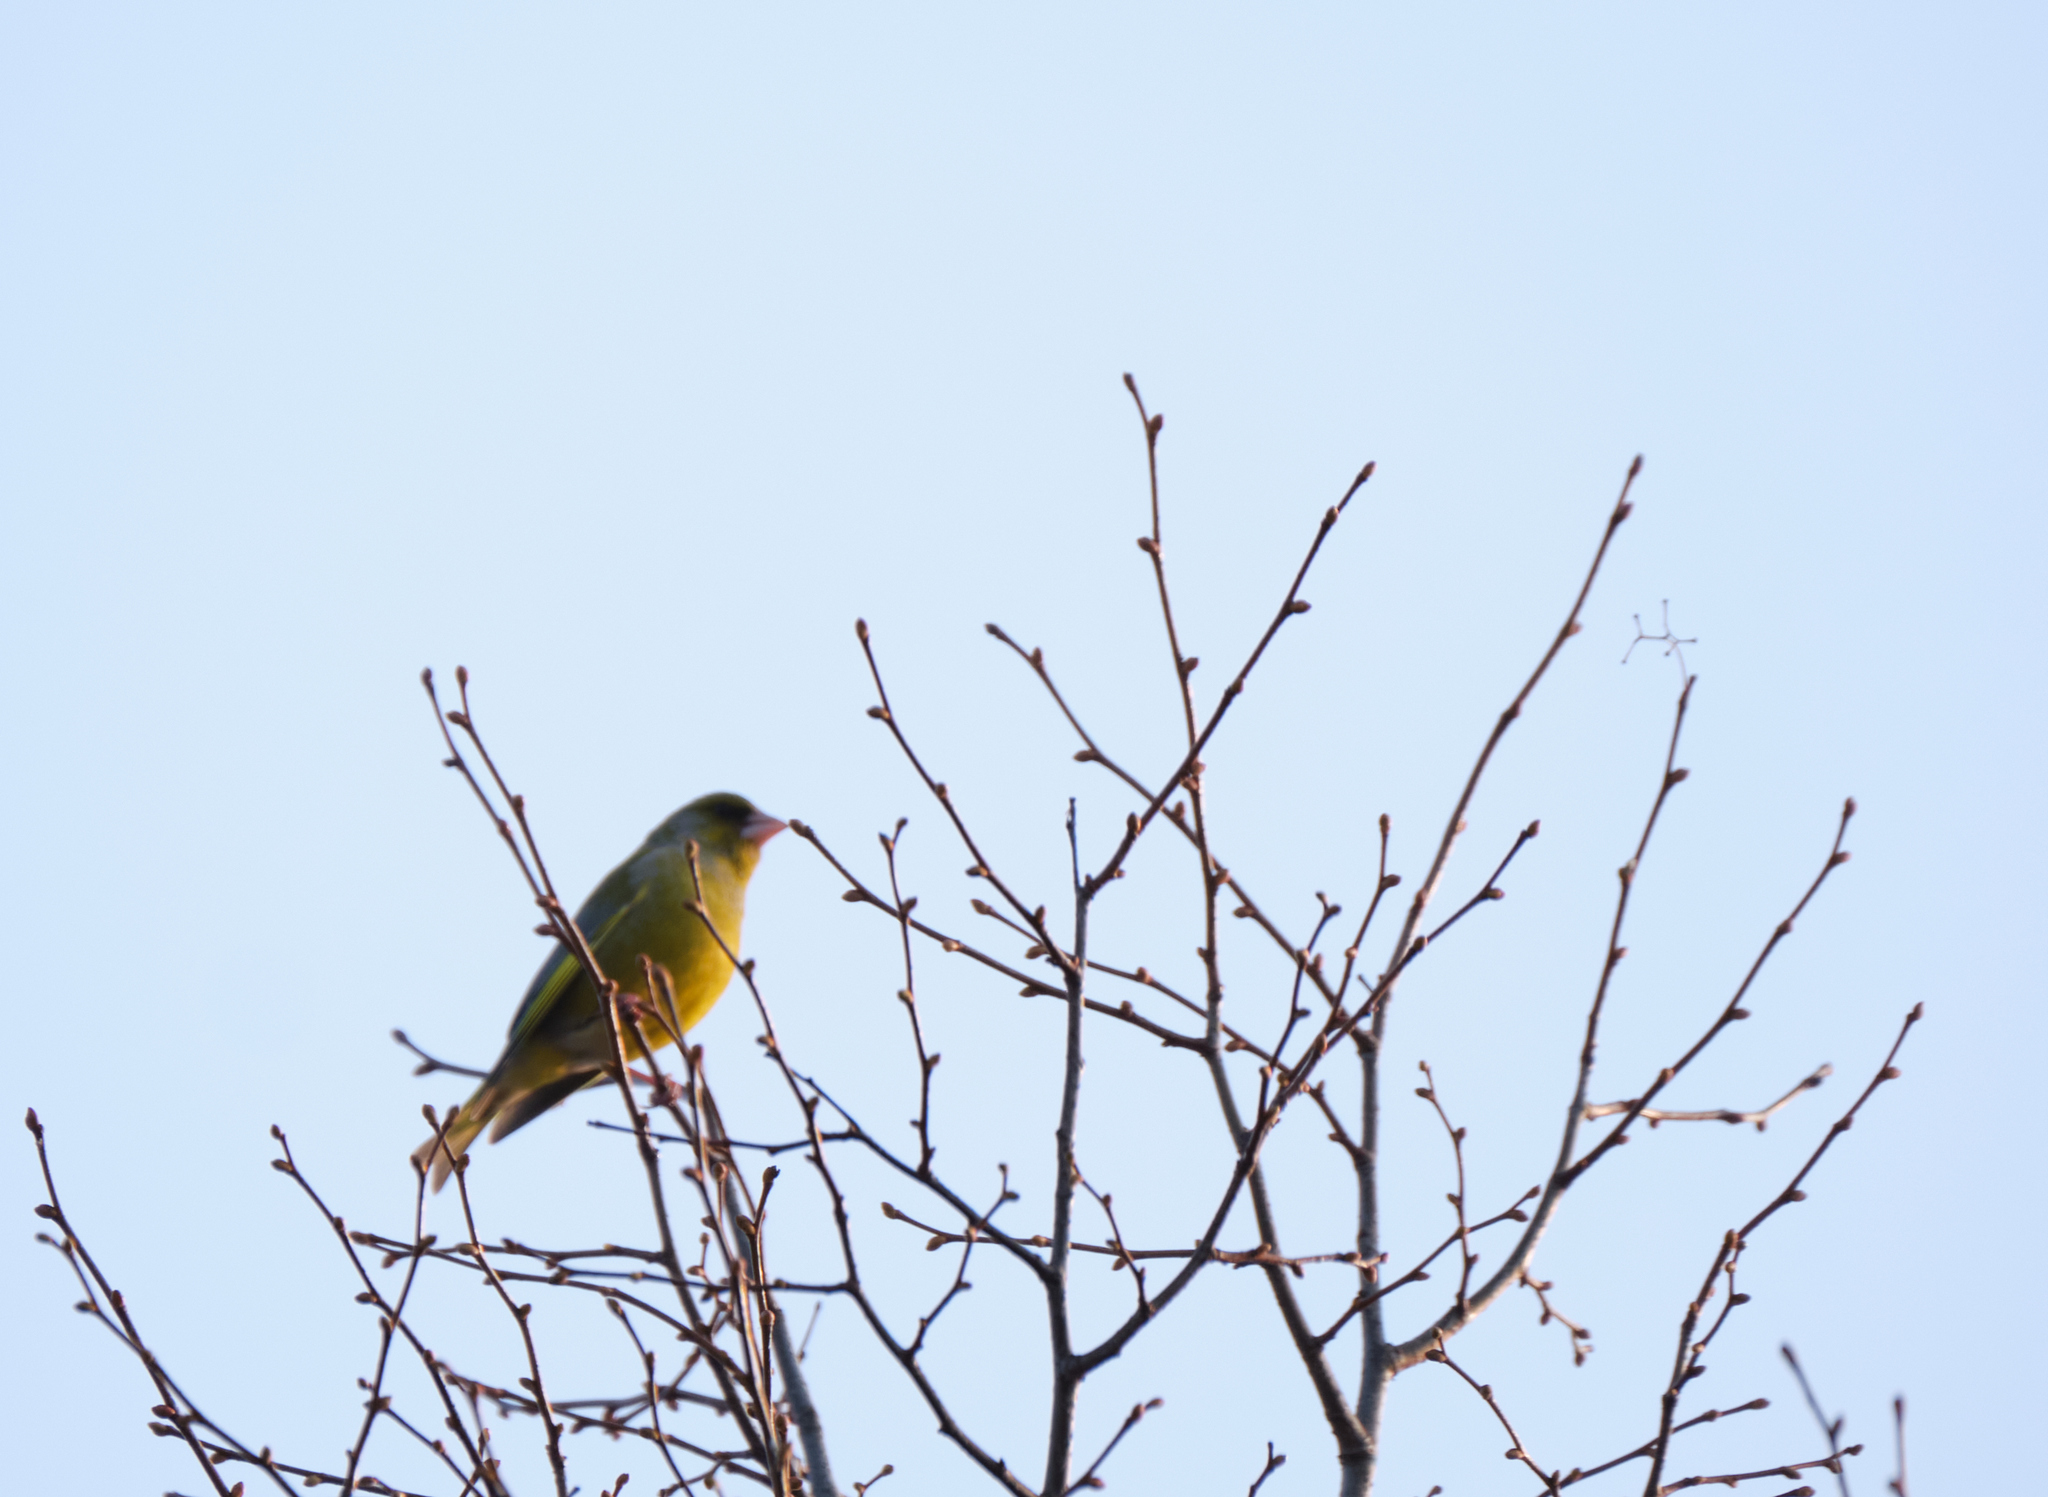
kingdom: Plantae
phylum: Tracheophyta
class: Liliopsida
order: Poales
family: Poaceae
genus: Chloris
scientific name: Chloris chloris
